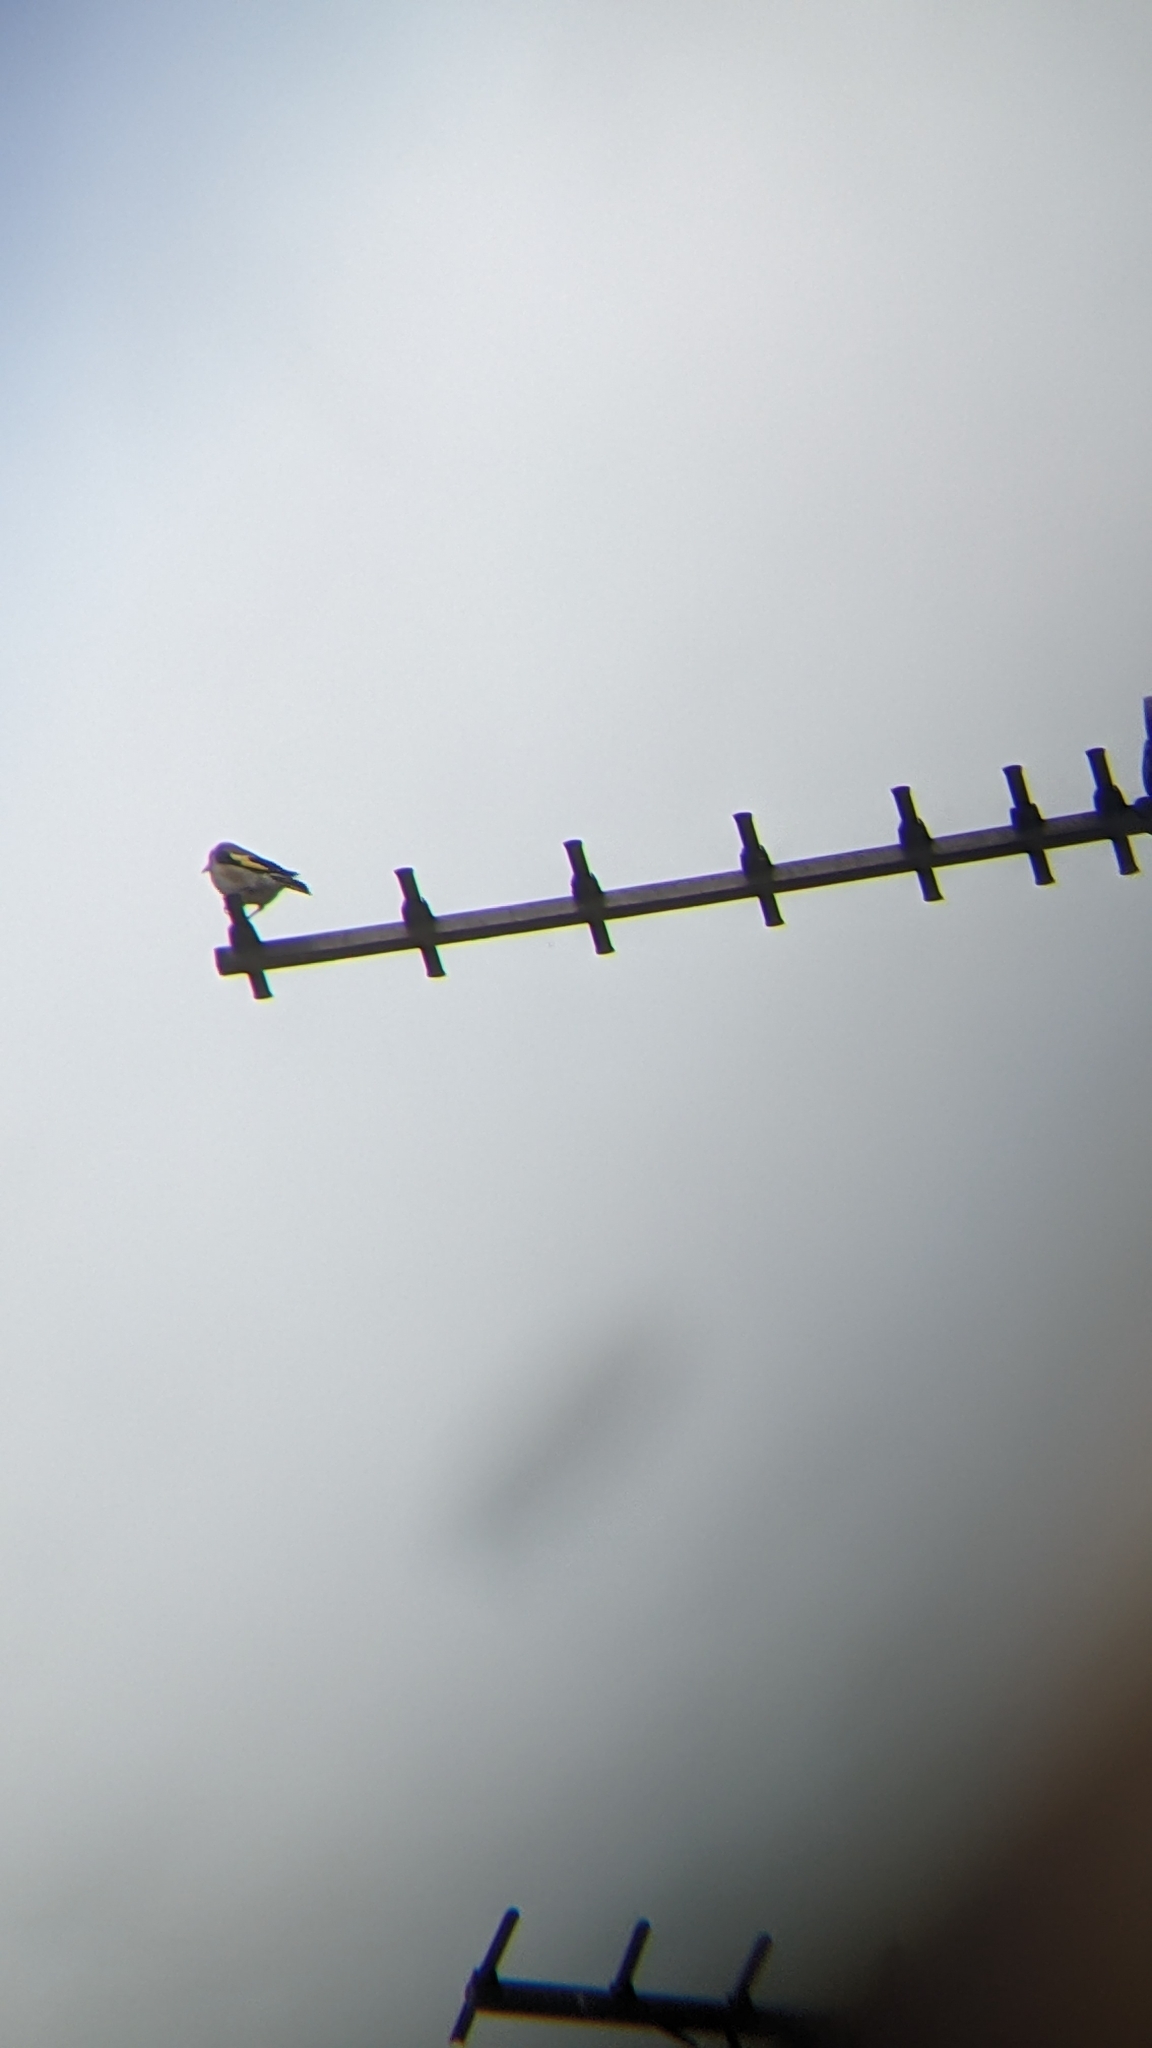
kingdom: Animalia
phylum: Chordata
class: Aves
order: Passeriformes
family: Fringillidae
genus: Carduelis
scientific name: Carduelis carduelis
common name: European goldfinch
